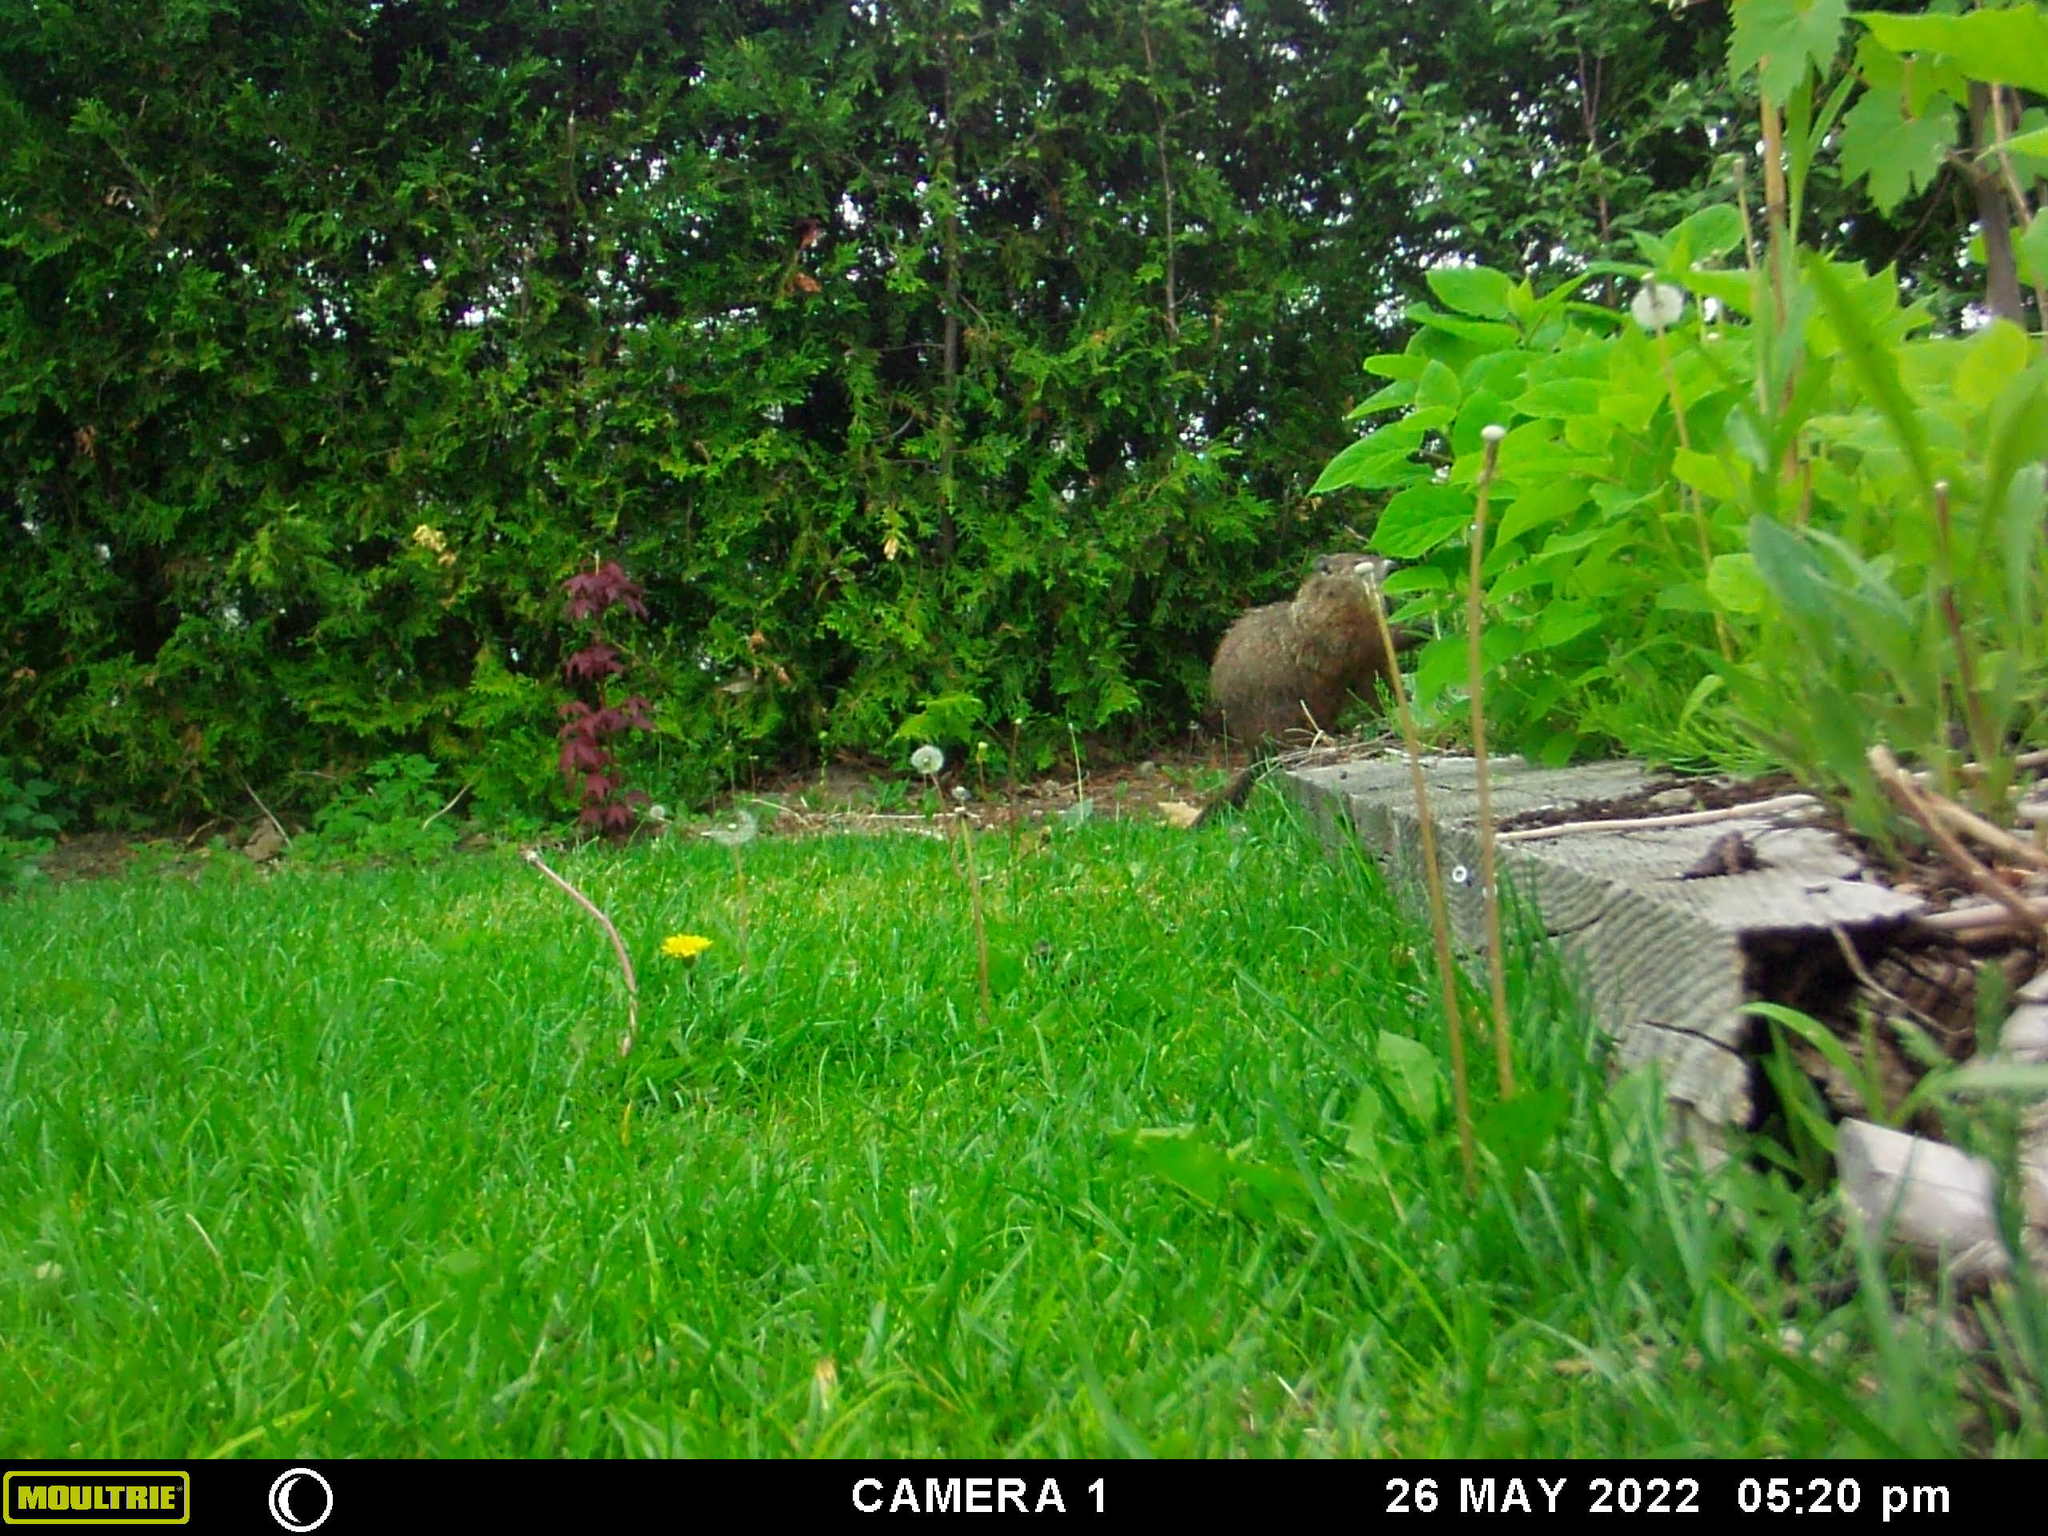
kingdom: Animalia
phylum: Chordata
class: Mammalia
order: Rodentia
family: Sciuridae
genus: Marmota
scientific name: Marmota monax
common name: Groundhog
